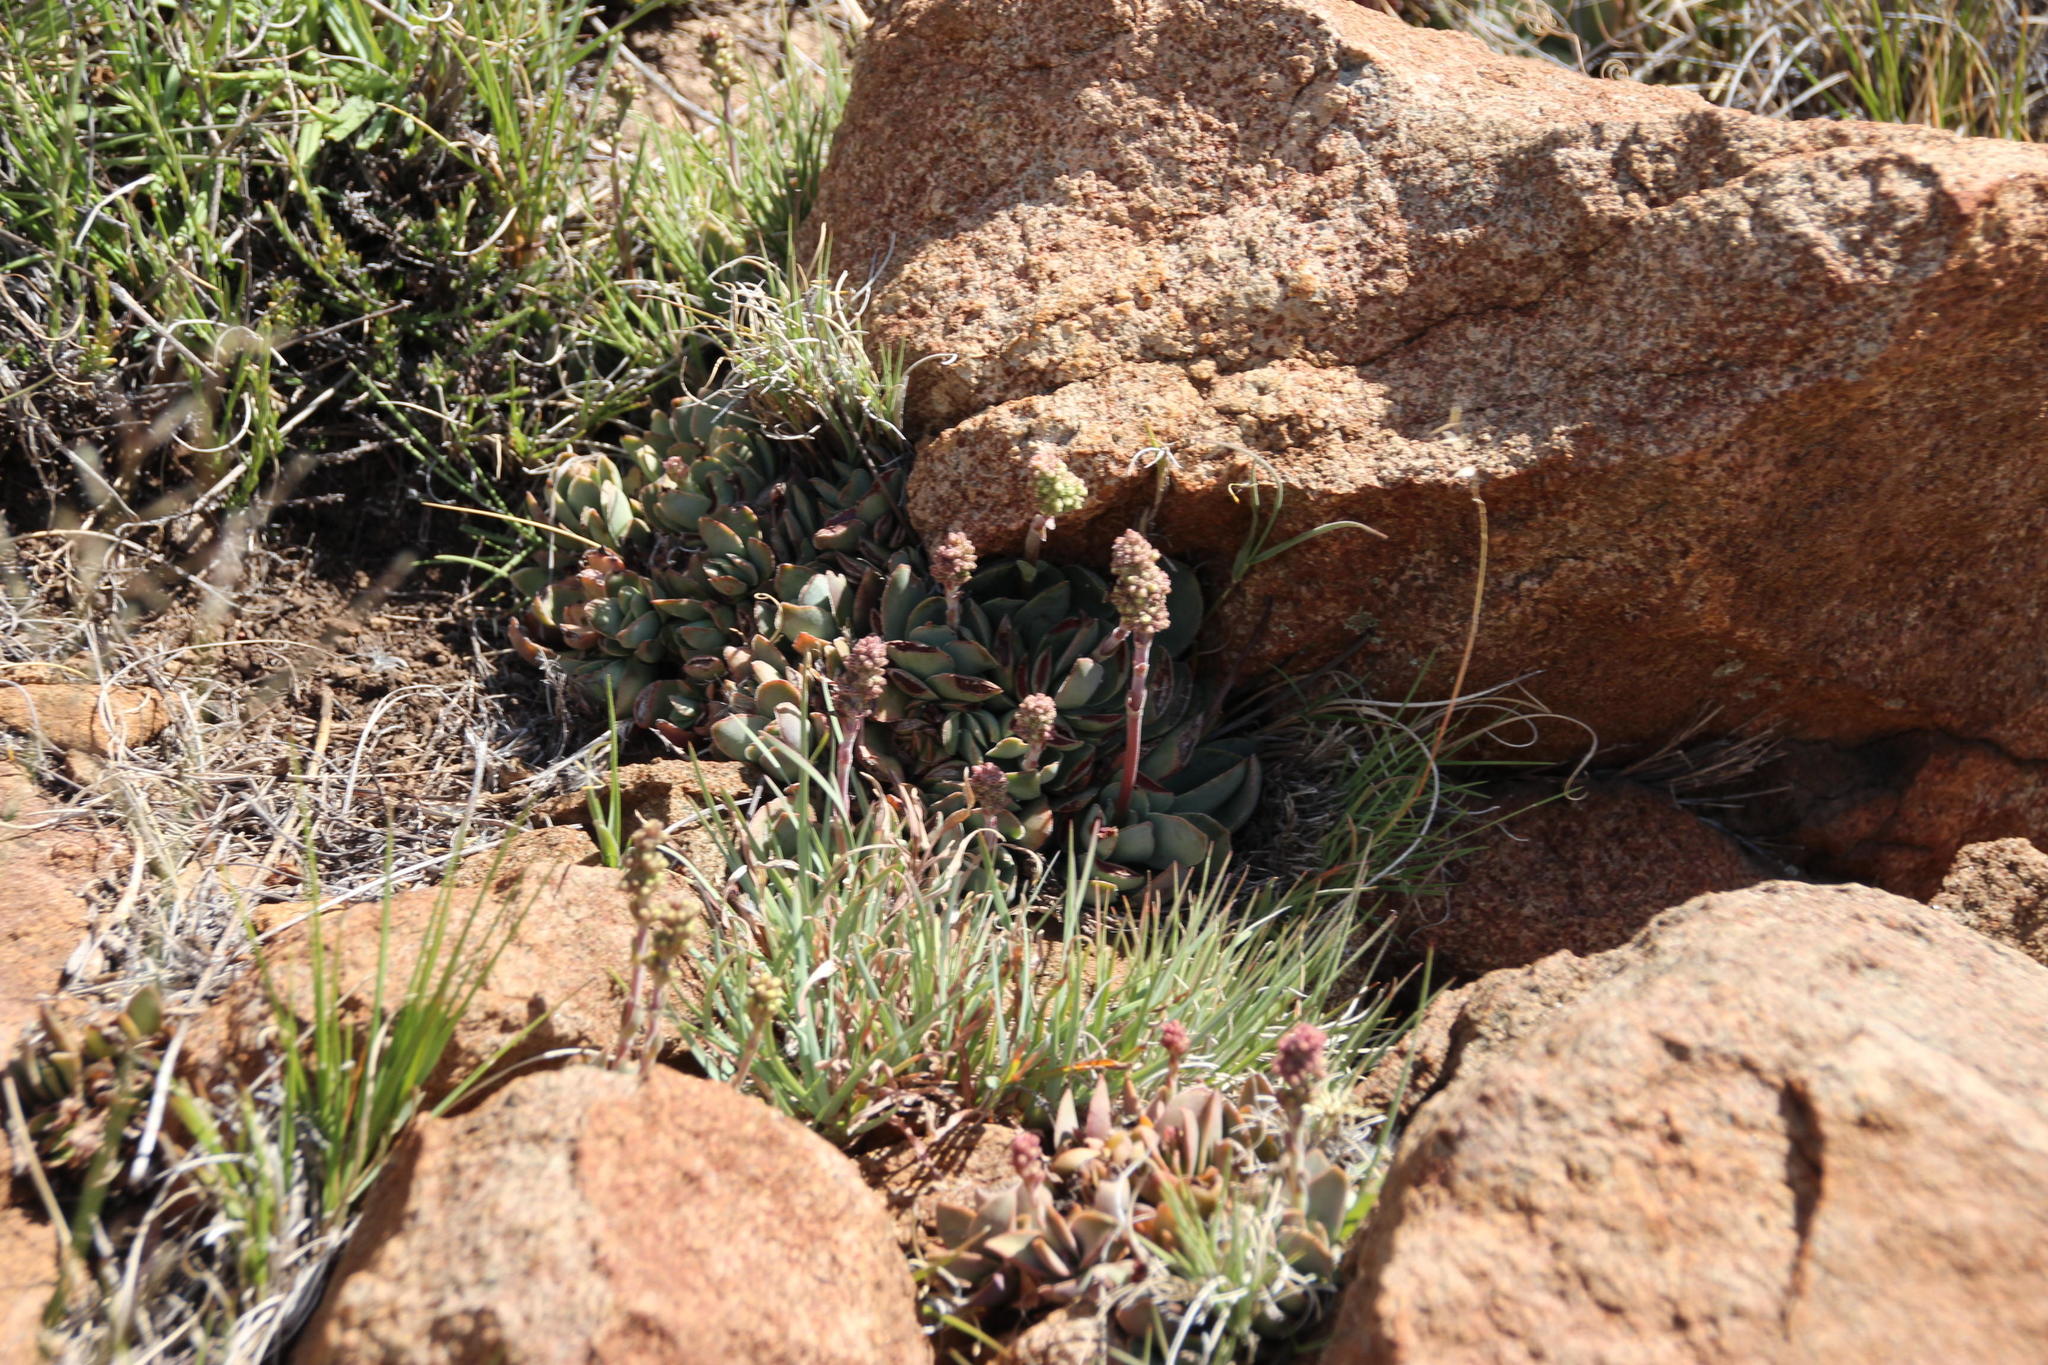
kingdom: Plantae
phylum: Tracheophyta
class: Magnoliopsida
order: Saxifragales
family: Crassulaceae
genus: Crassula
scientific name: Crassula pubescens
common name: Jersey pigmyweed
